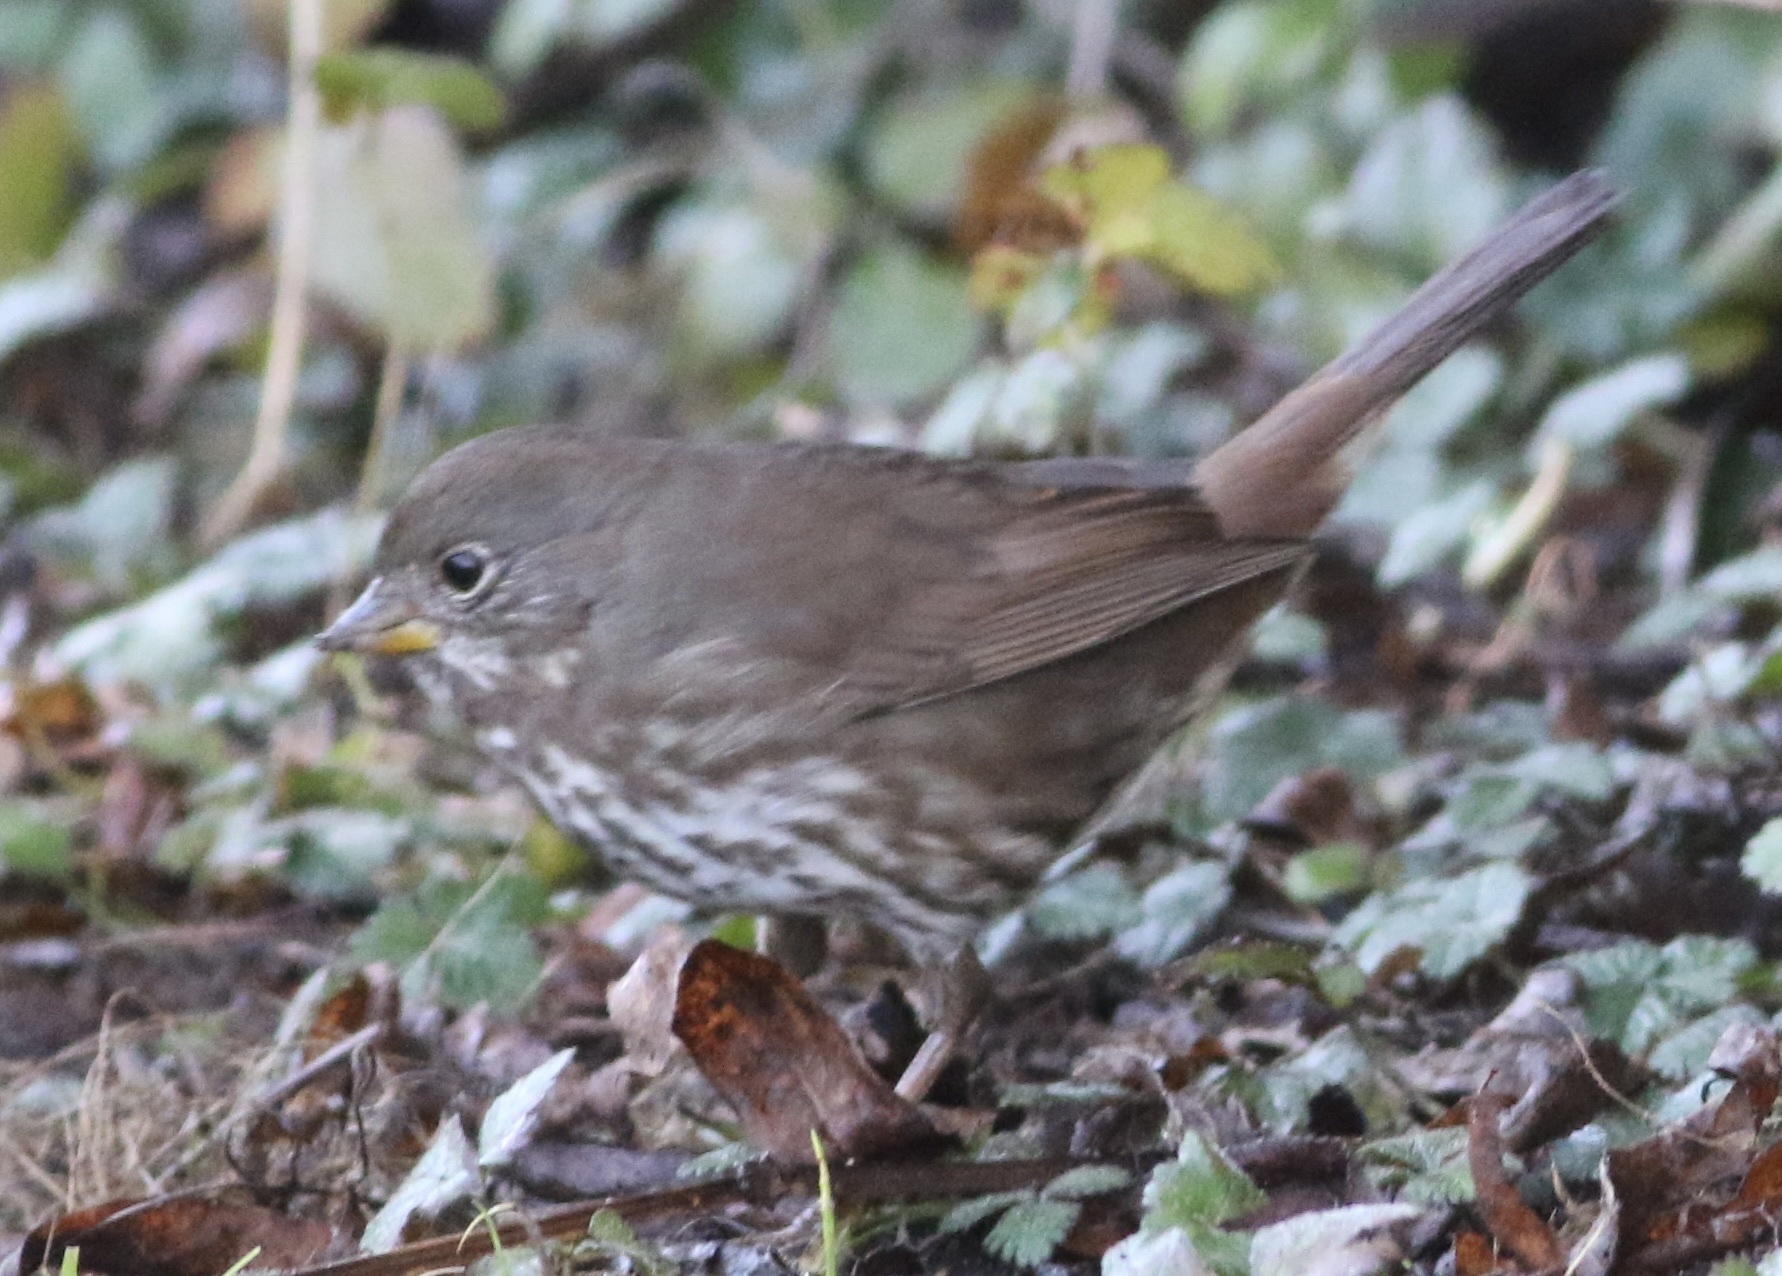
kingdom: Animalia
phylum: Chordata
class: Aves
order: Passeriformes
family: Passerellidae
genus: Passerella
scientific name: Passerella iliaca
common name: Fox sparrow
